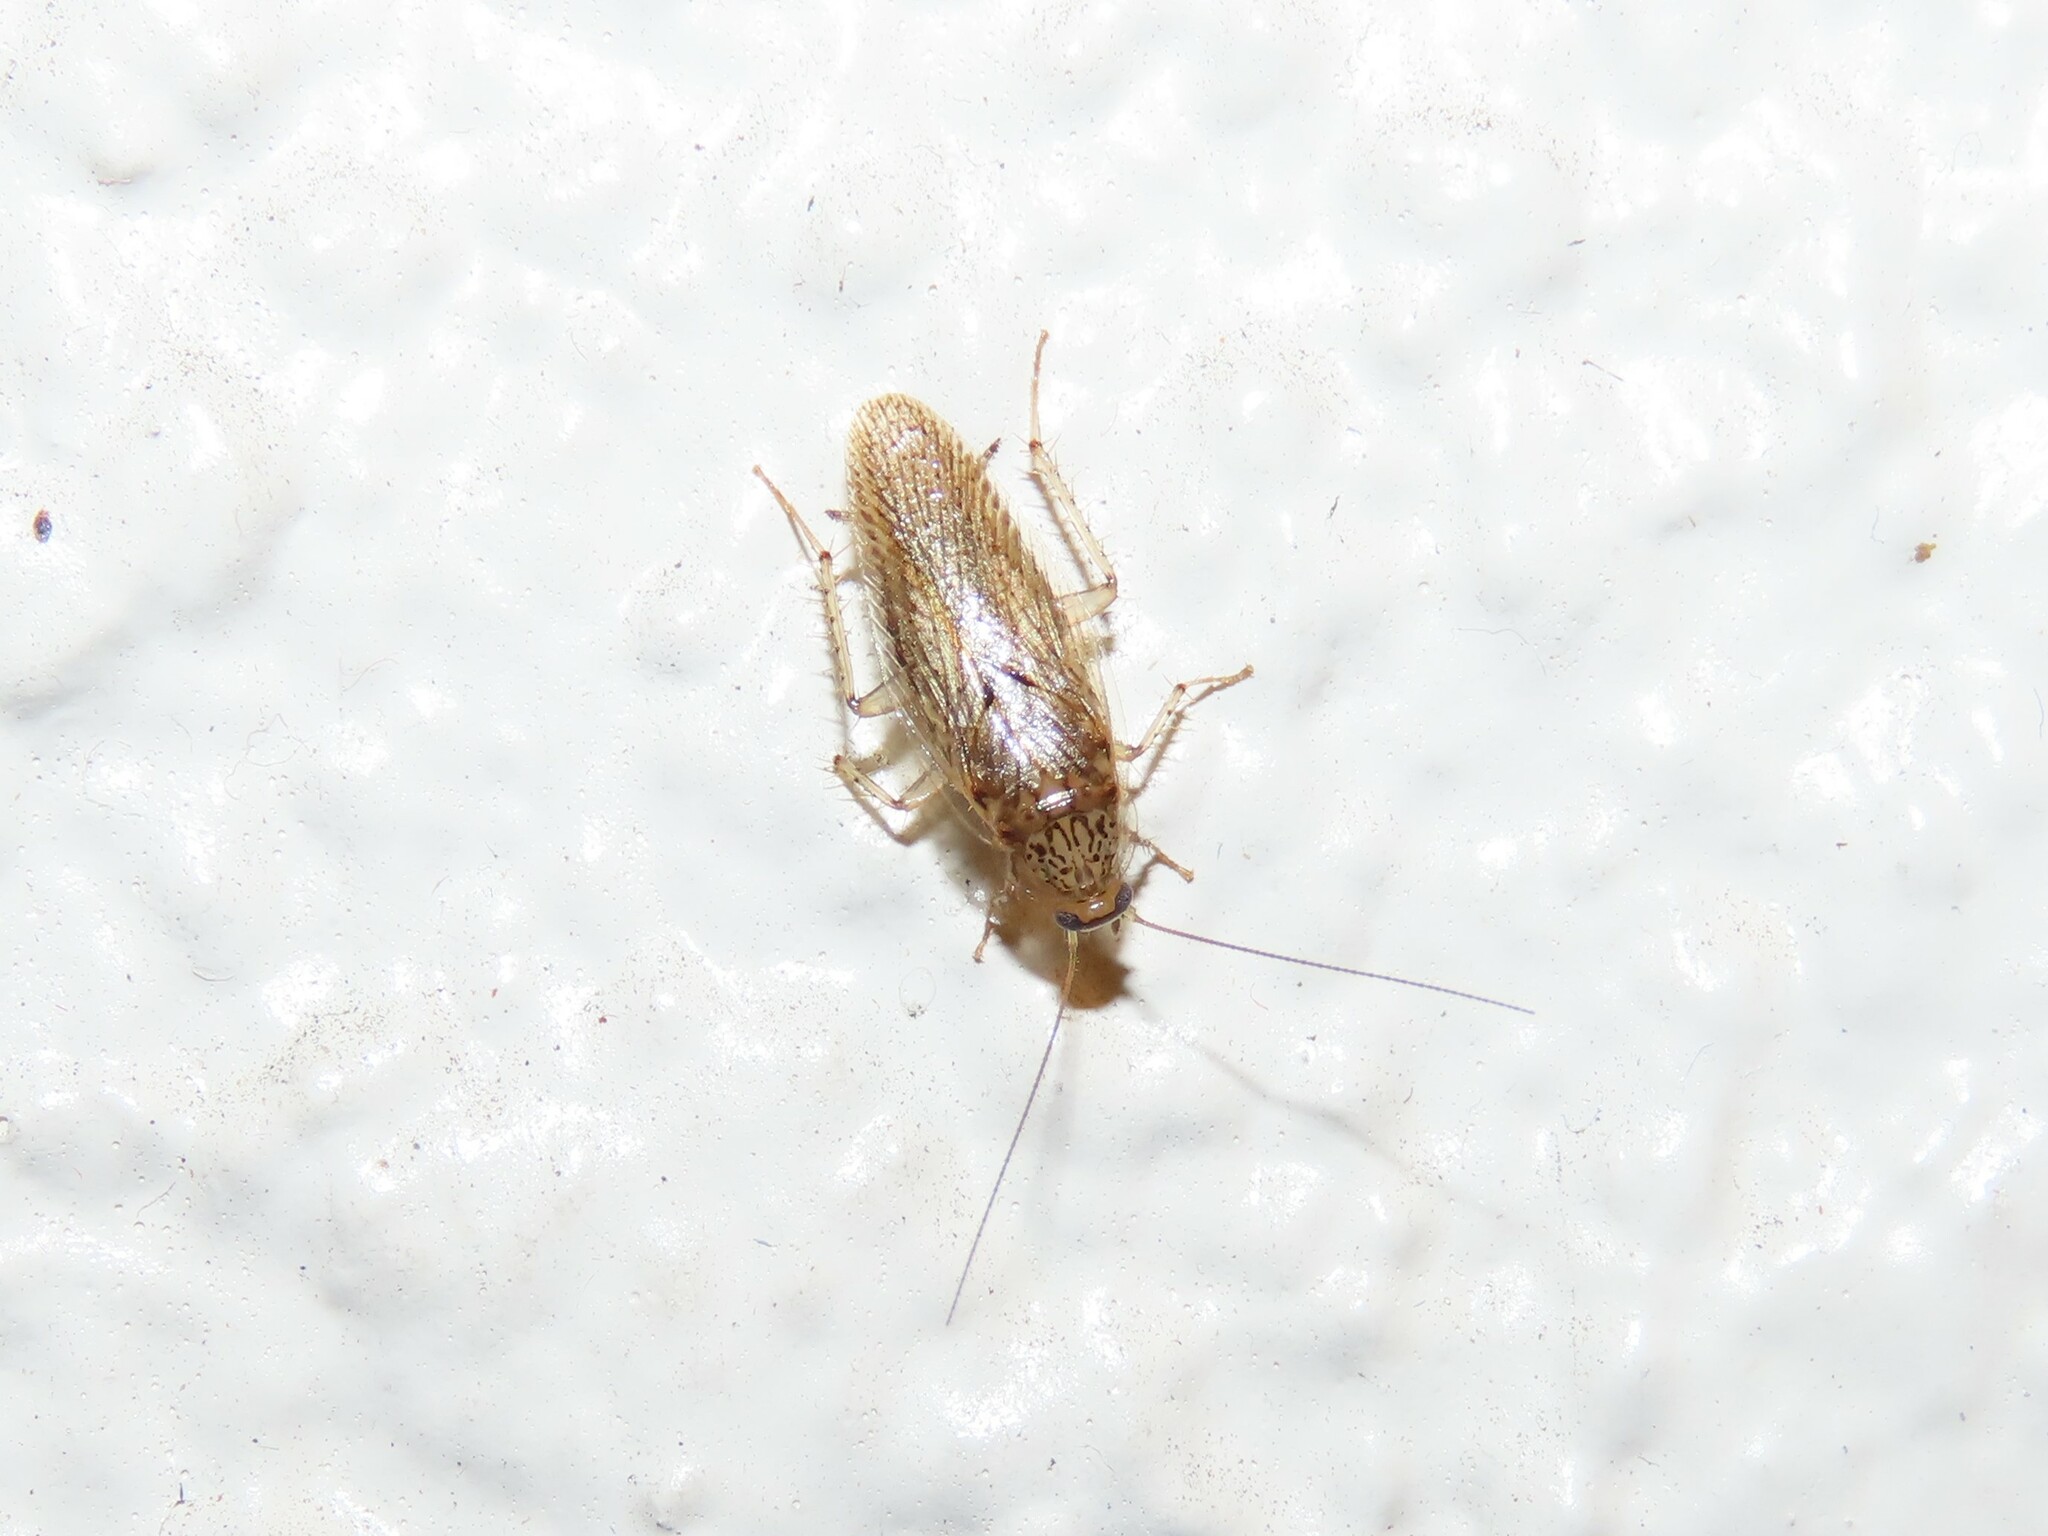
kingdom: Animalia
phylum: Arthropoda
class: Insecta
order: Blattodea
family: Ectobiidae
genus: Neoblattella
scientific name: Neoblattella detersa
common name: Wood cockroach
